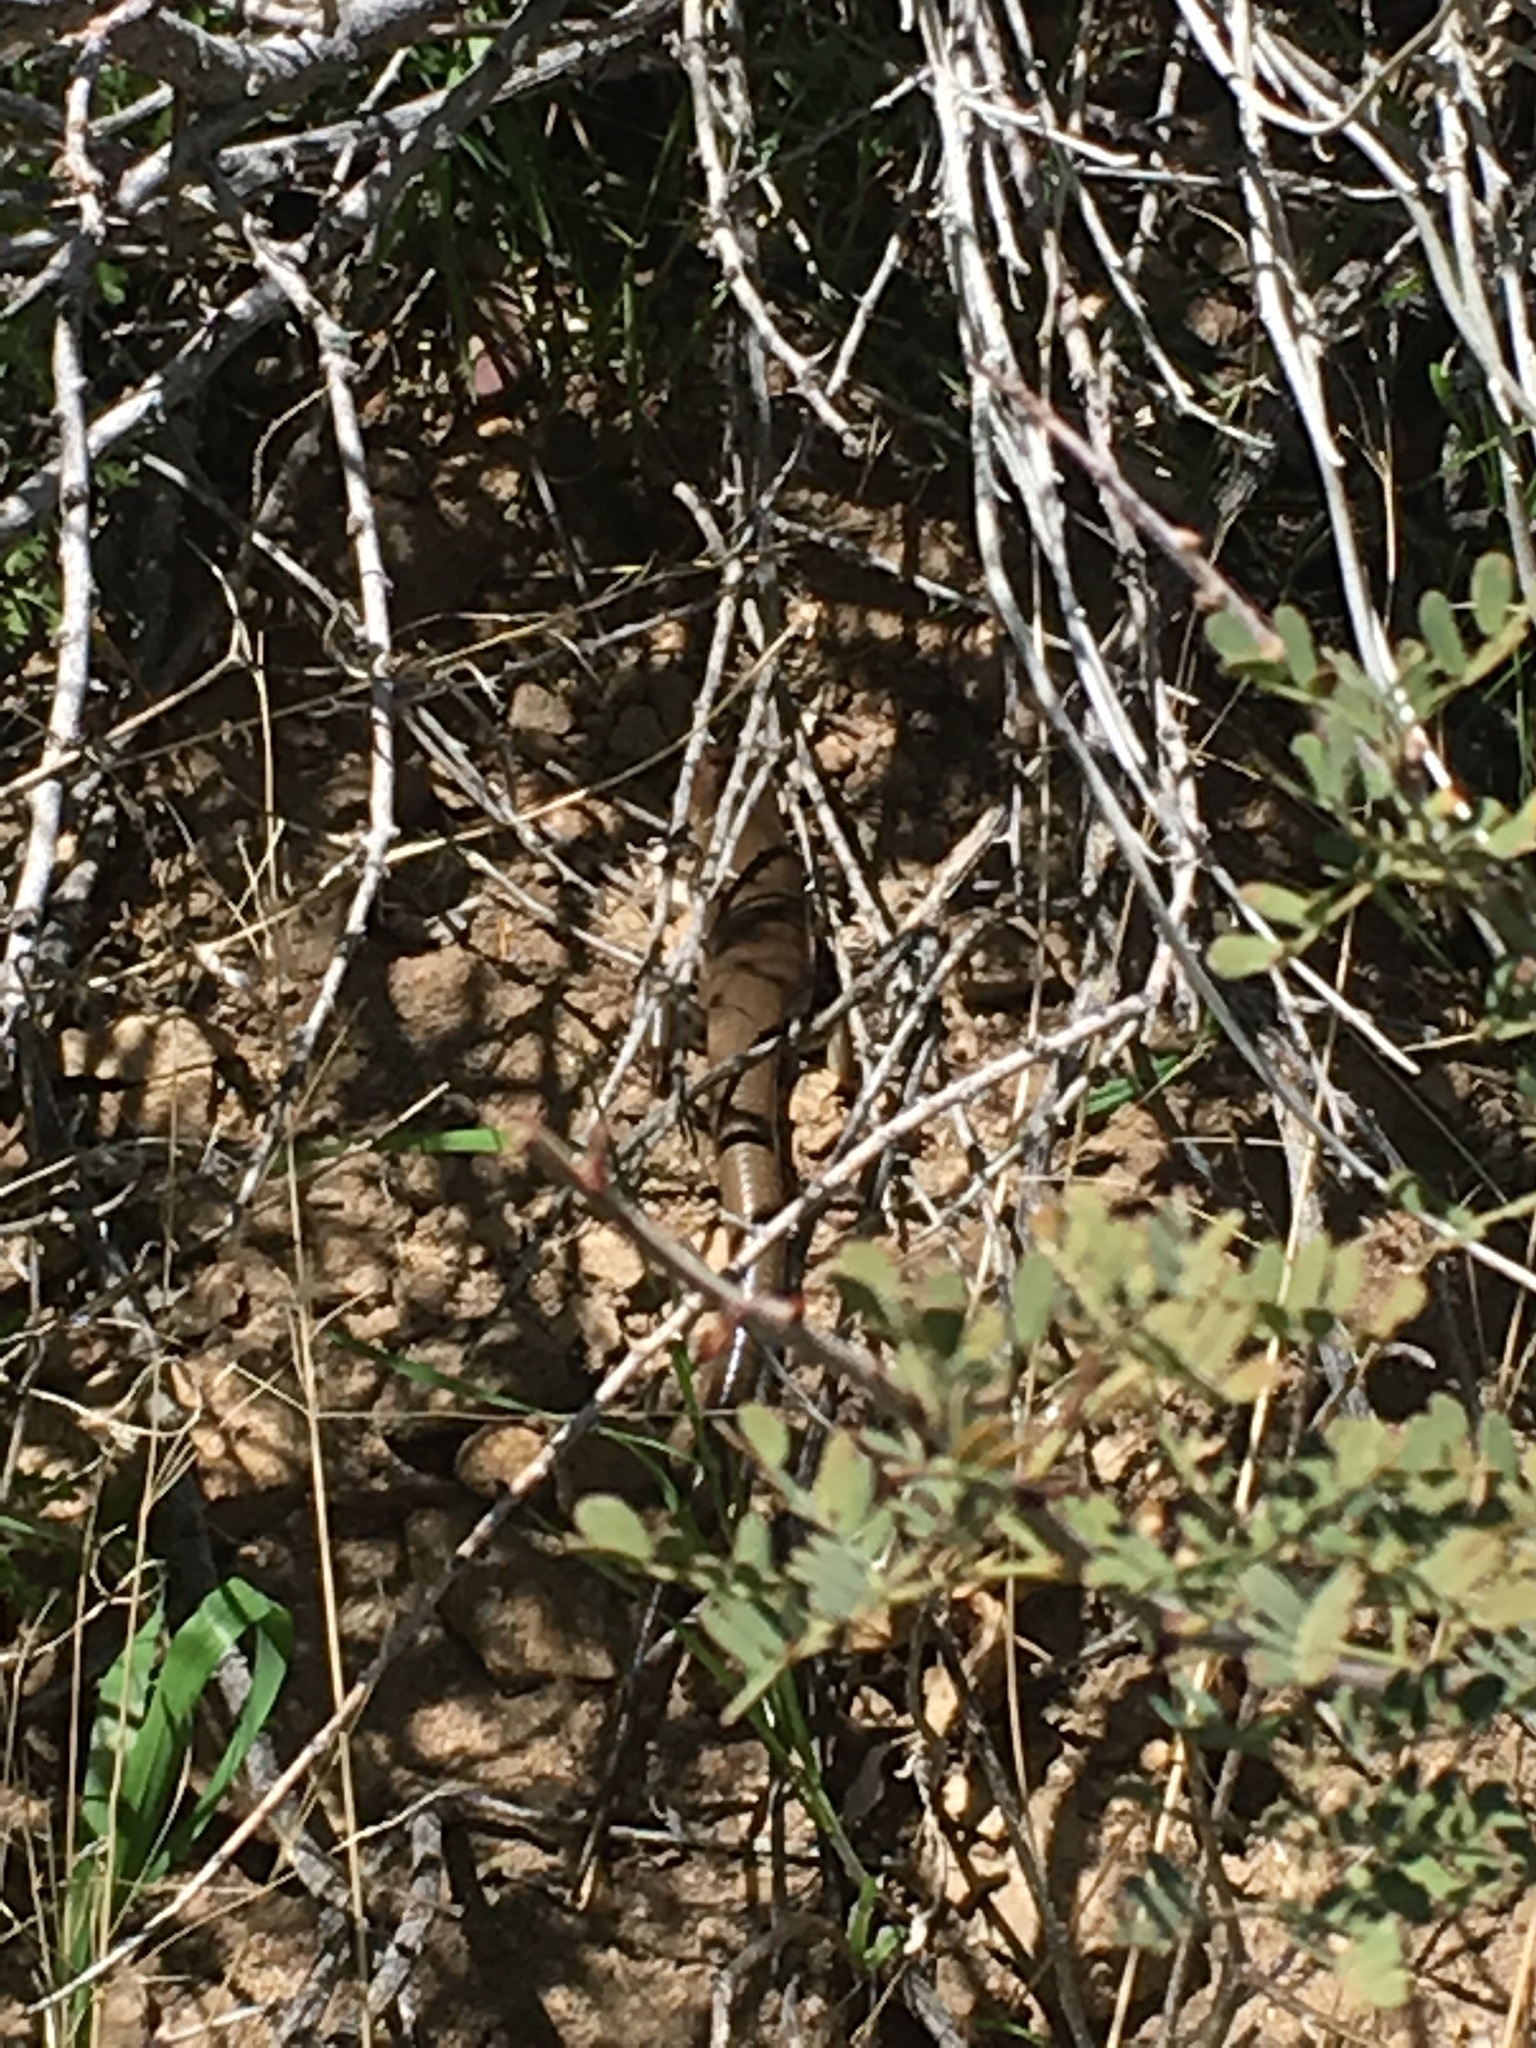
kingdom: Animalia
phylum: Chordata
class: Squamata
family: Scincidae
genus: Plestiodon
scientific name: Plestiodon gilberti
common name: Gilbert's skink
